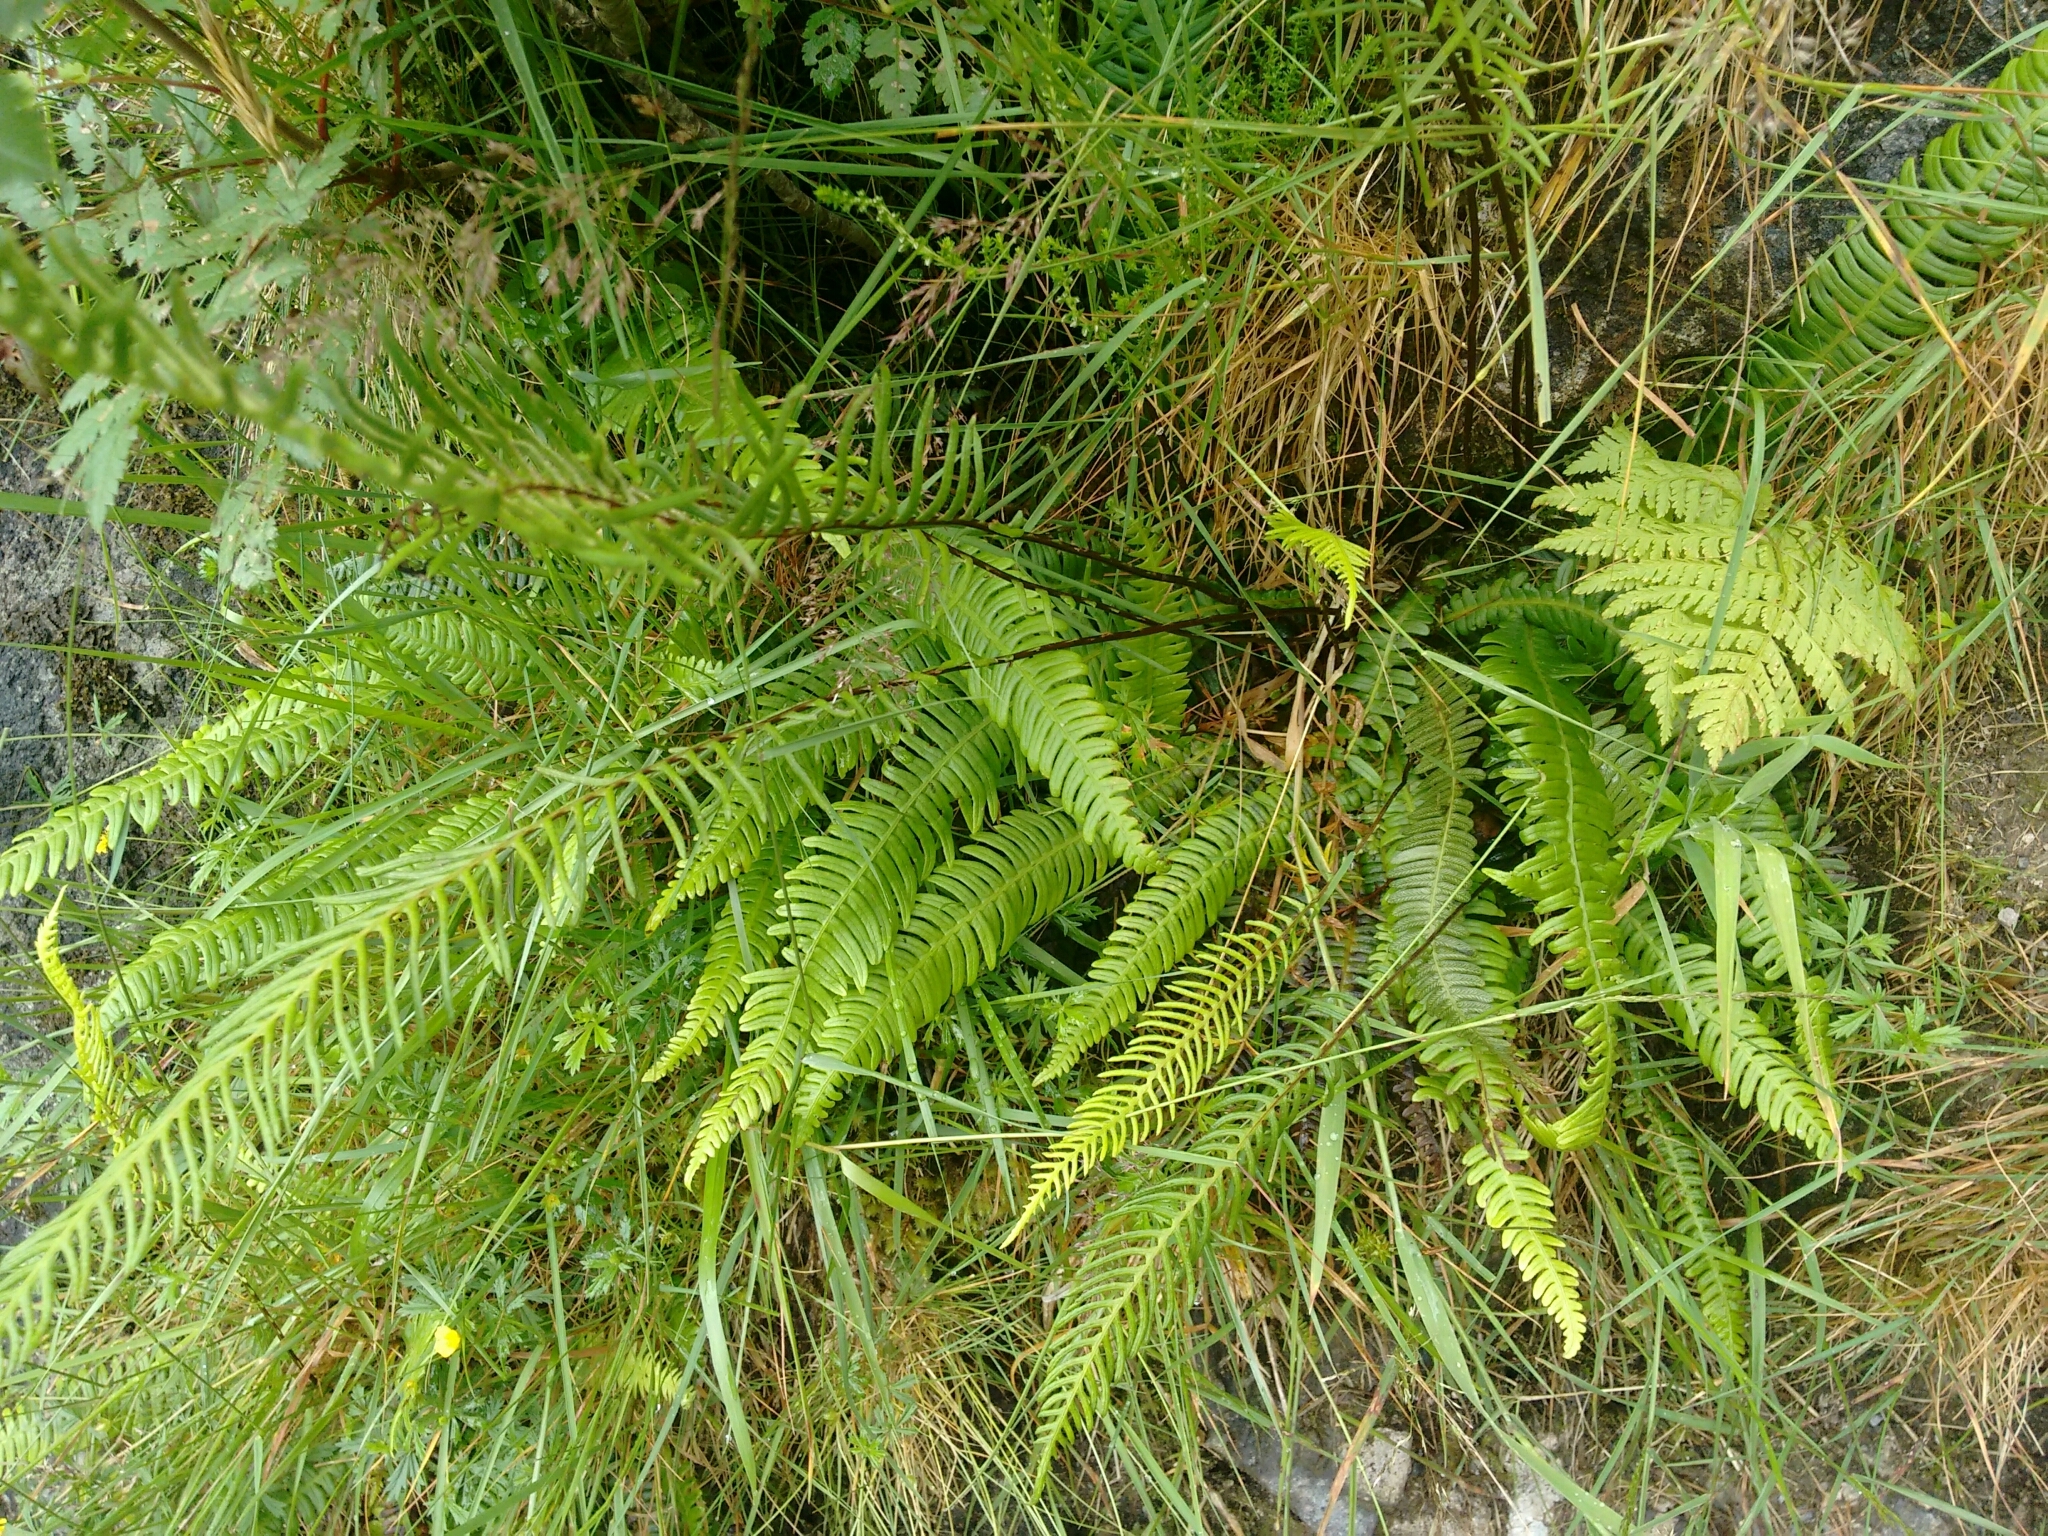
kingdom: Plantae
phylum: Tracheophyta
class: Polypodiopsida
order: Polypodiales
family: Blechnaceae
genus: Struthiopteris
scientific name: Struthiopteris spicant
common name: Deer fern
